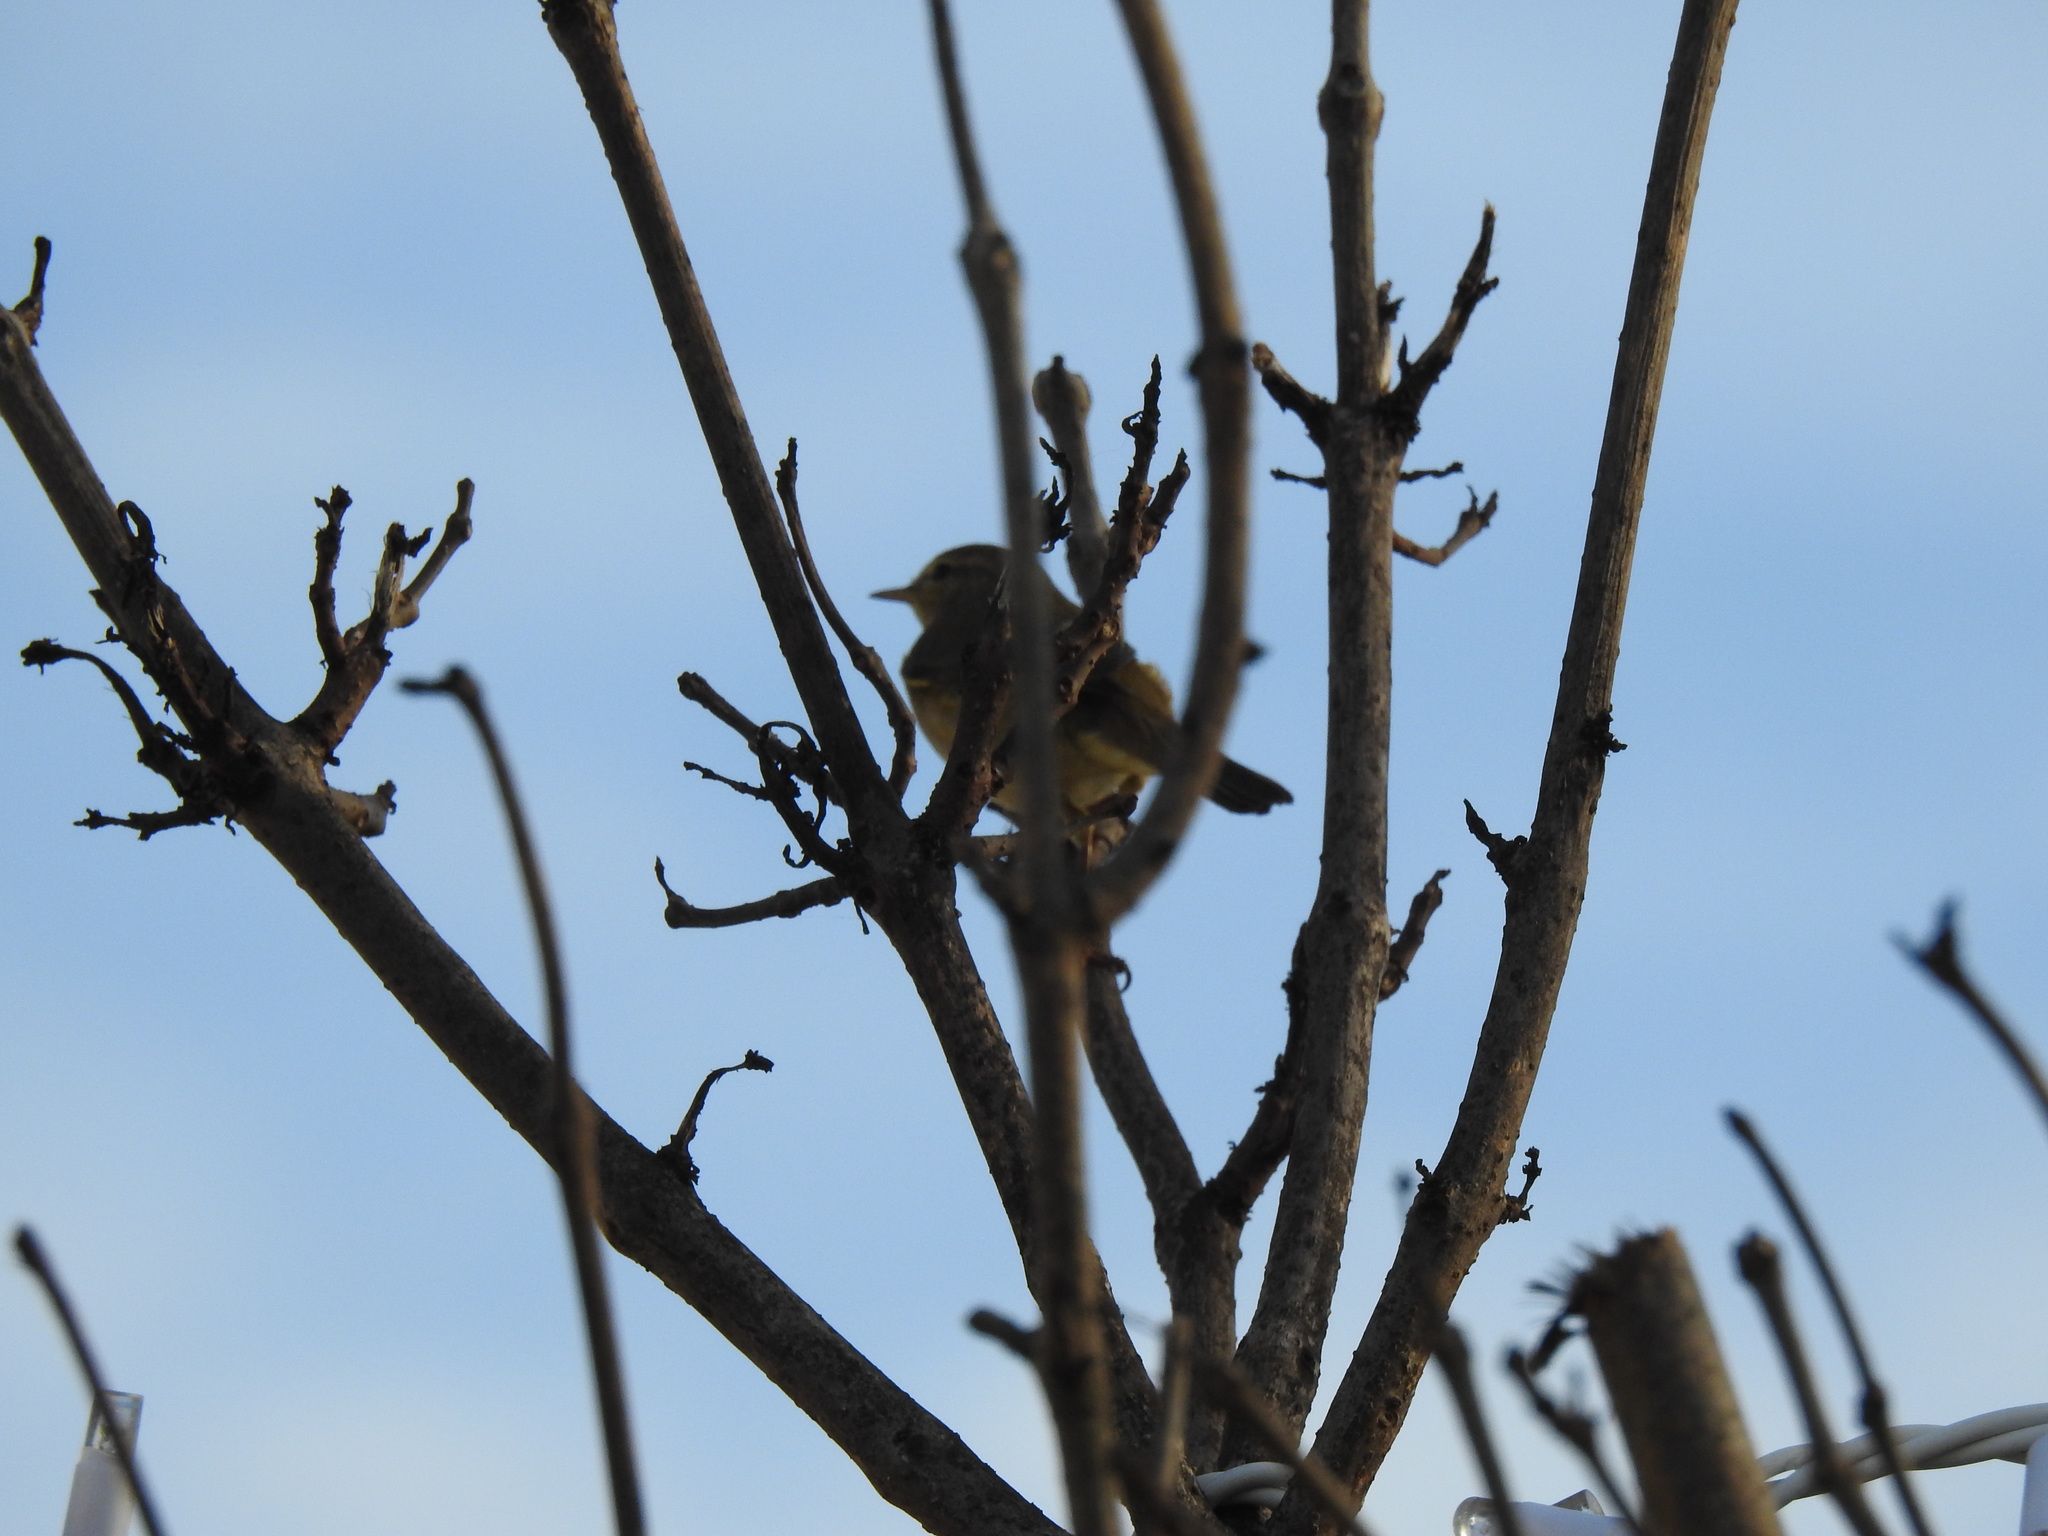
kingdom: Animalia
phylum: Chordata
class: Aves
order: Passeriformes
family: Phylloscopidae
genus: Phylloscopus
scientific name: Phylloscopus collybita
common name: Common chiffchaff
